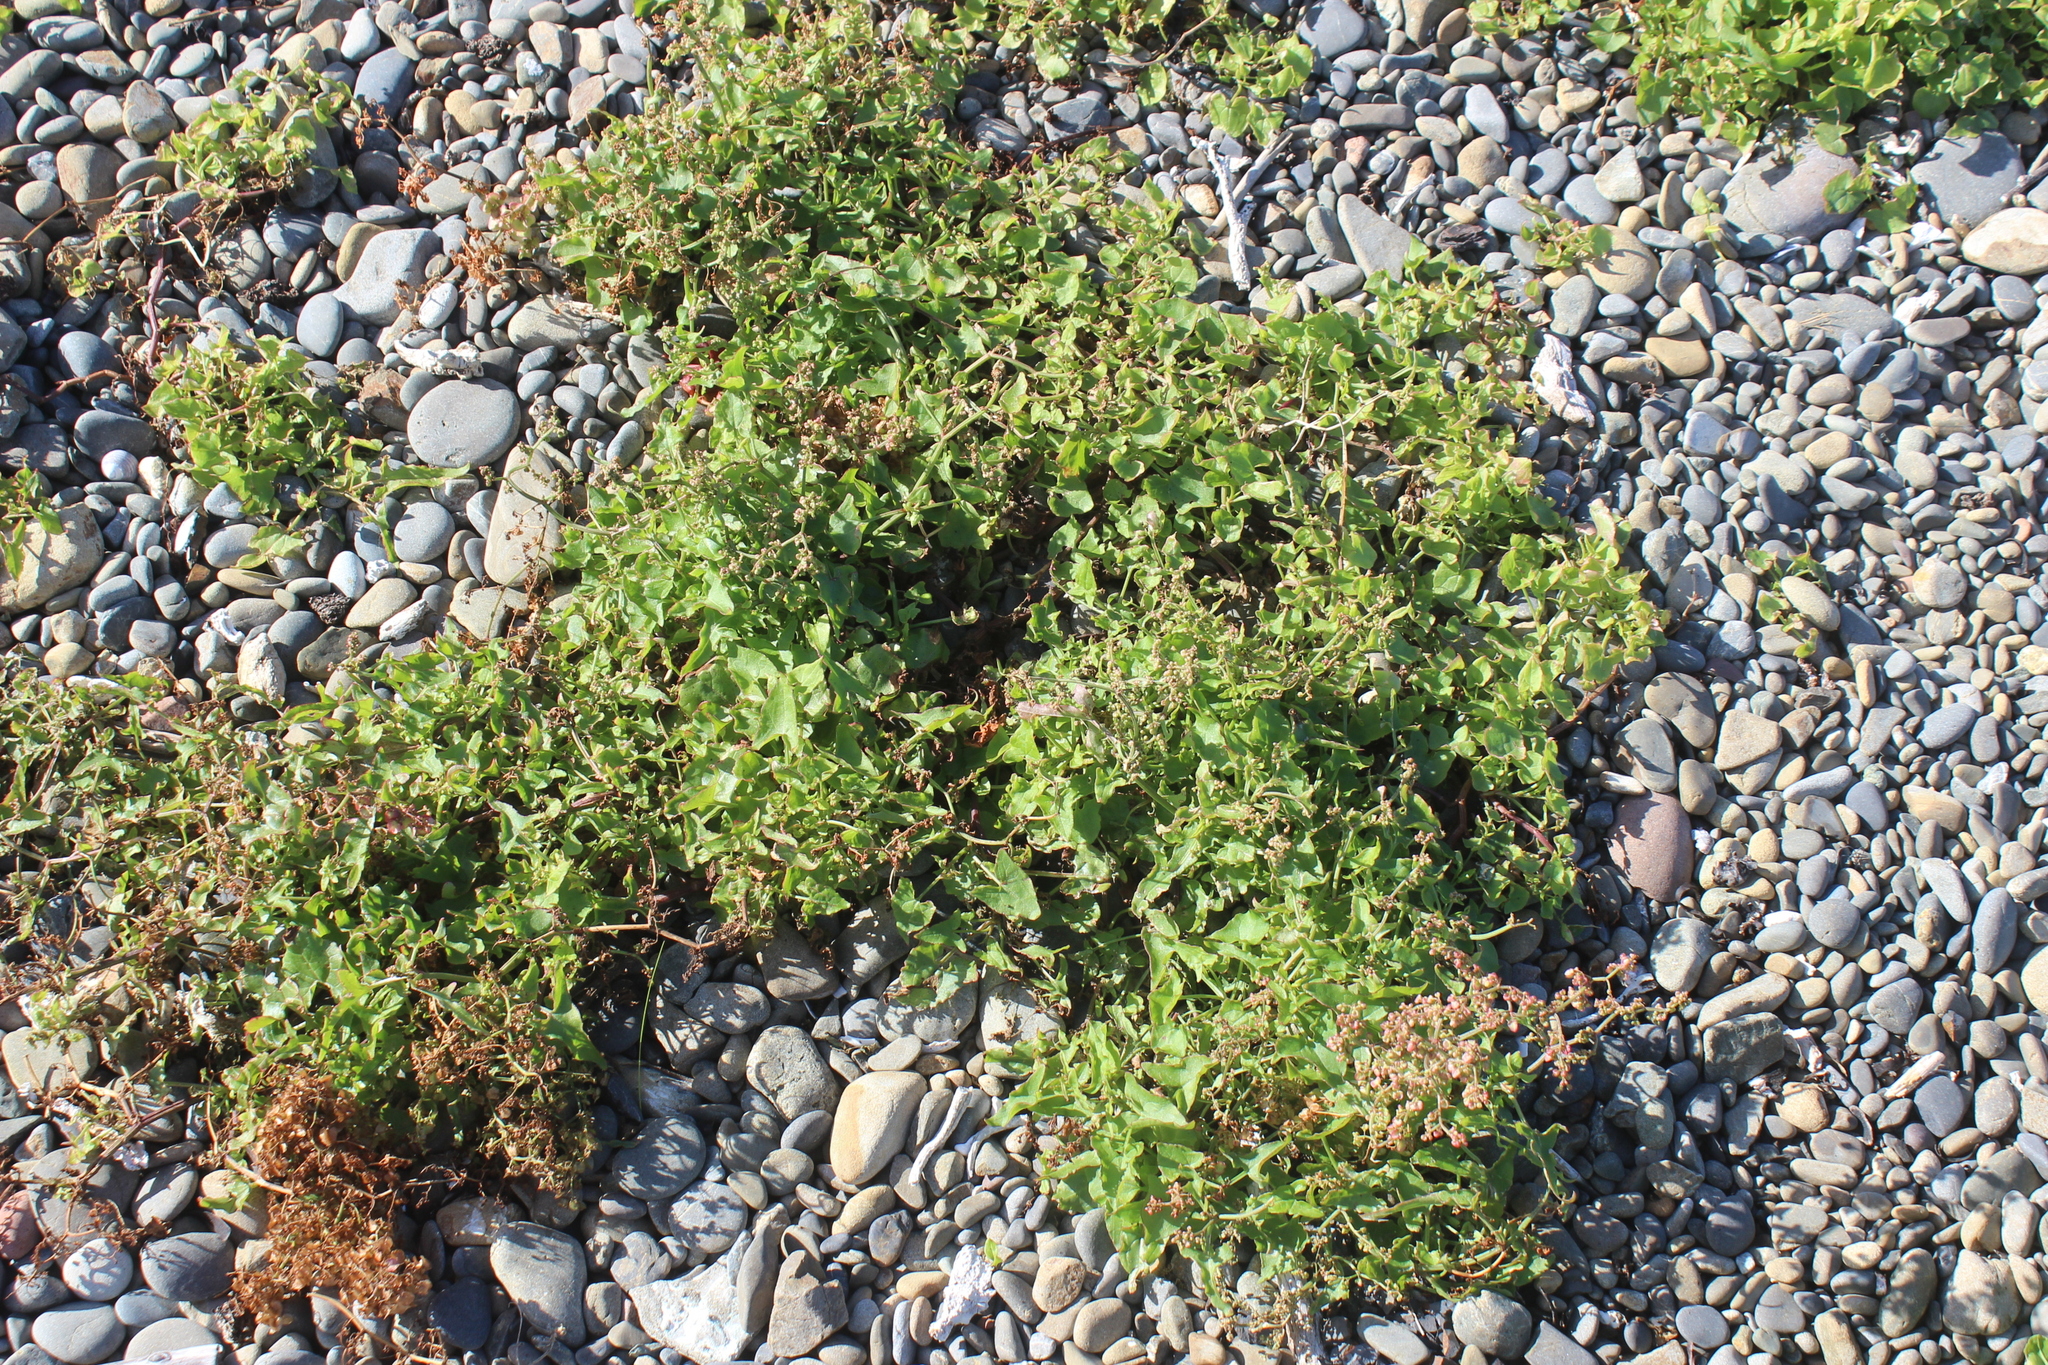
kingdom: Plantae
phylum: Tracheophyta
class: Magnoliopsida
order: Caryophyllales
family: Polygonaceae
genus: Rumex
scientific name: Rumex sagittatus
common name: Climbing dock
